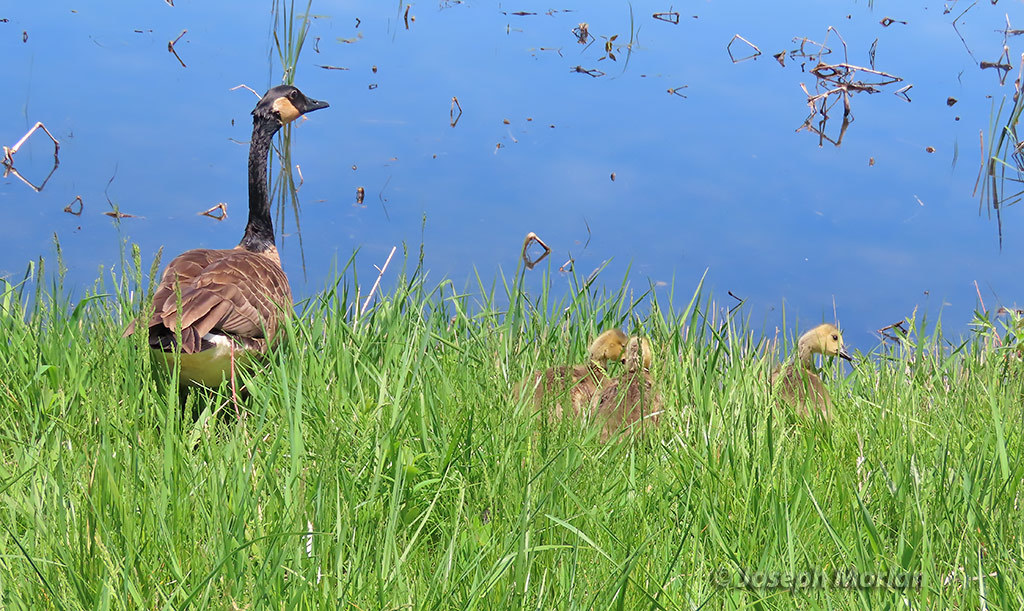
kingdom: Animalia
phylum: Chordata
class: Aves
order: Anseriformes
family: Anatidae
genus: Branta
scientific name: Branta canadensis
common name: Canada goose
